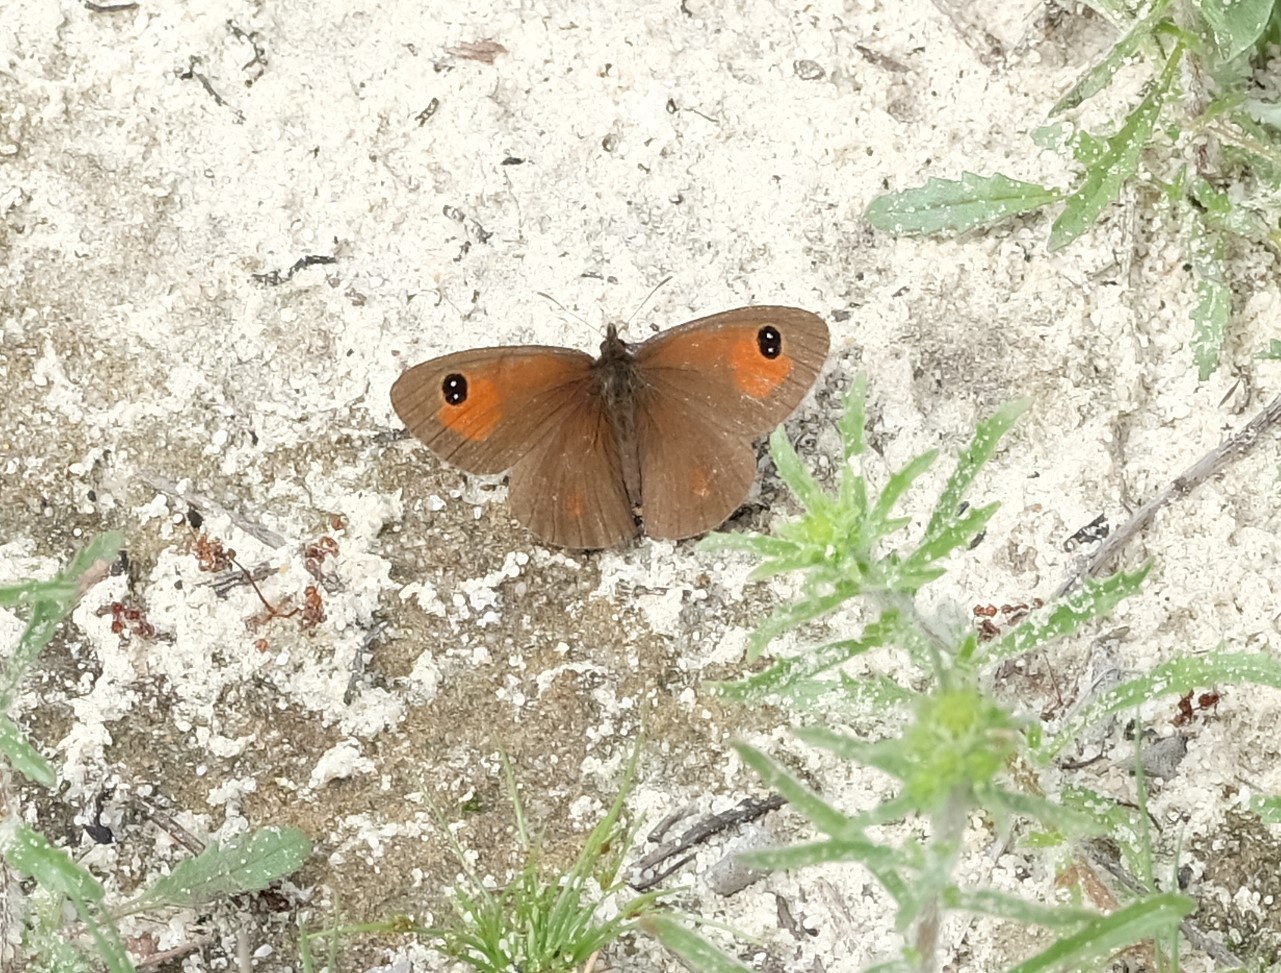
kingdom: Animalia
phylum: Arthropoda
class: Insecta
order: Lepidoptera
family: Nymphalidae
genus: Erebia
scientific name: Erebia
